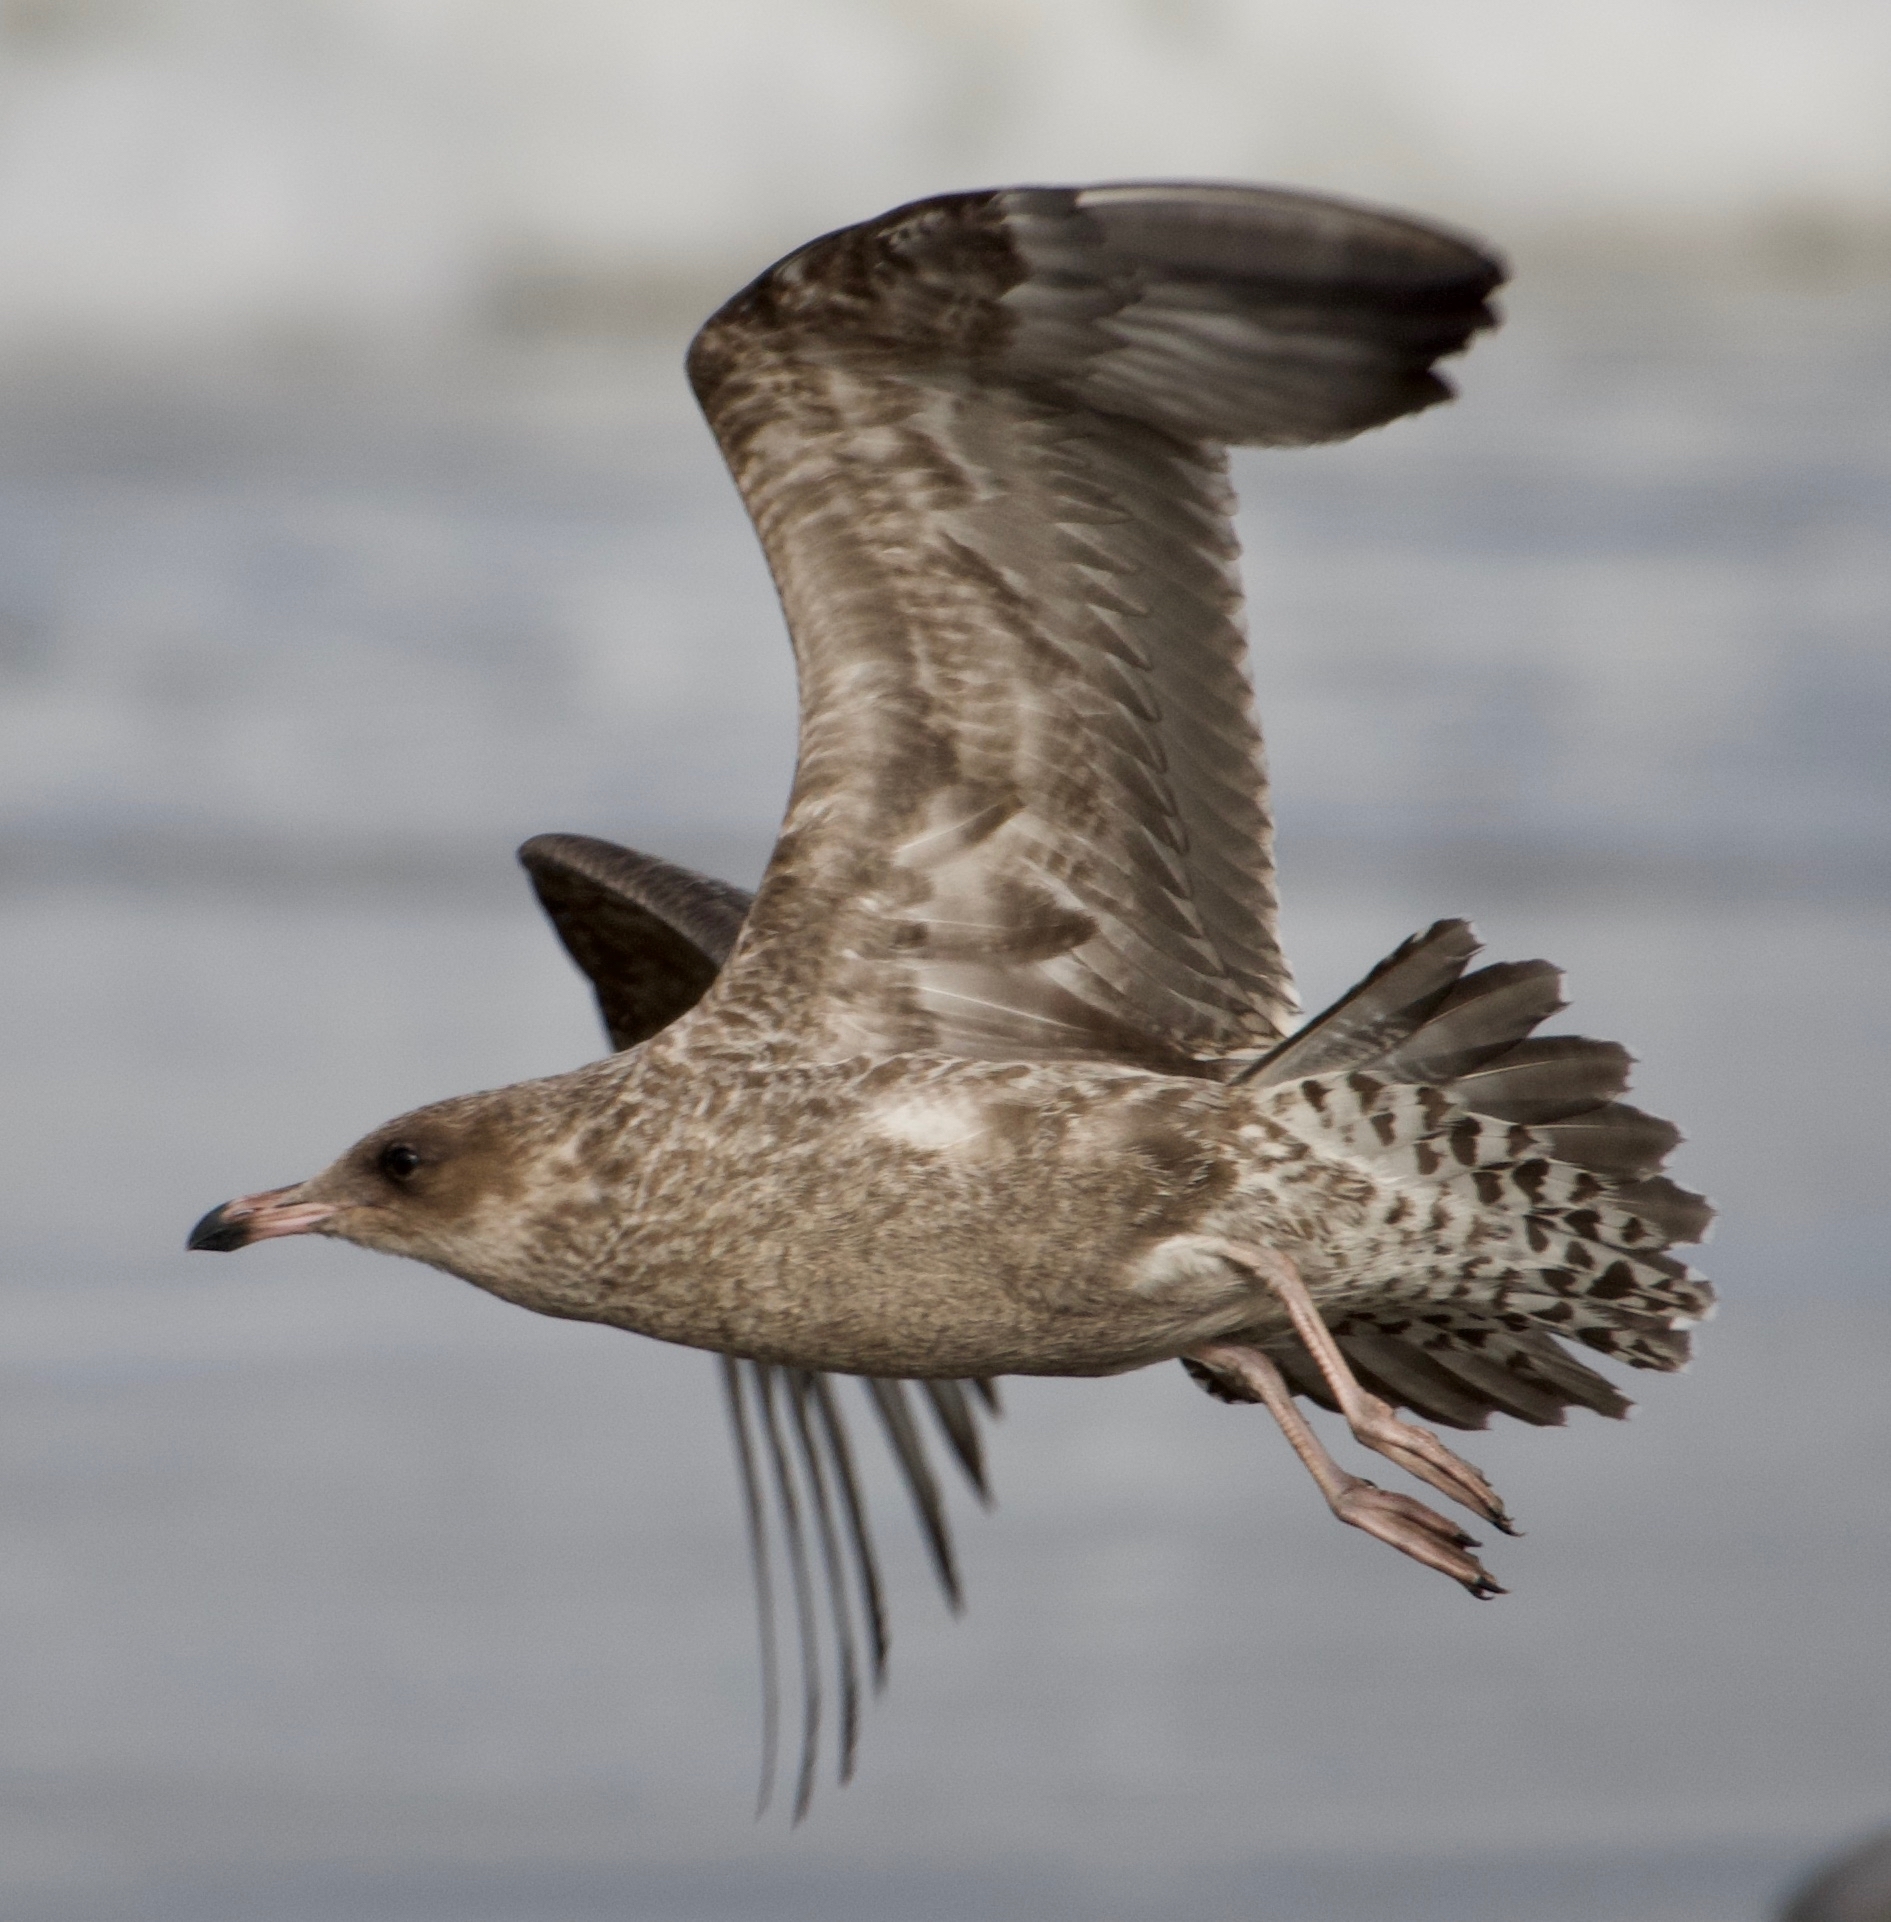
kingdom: Animalia
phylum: Chordata
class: Aves
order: Charadriiformes
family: Laridae
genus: Larus
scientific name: Larus occidentalis
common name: Western gull
